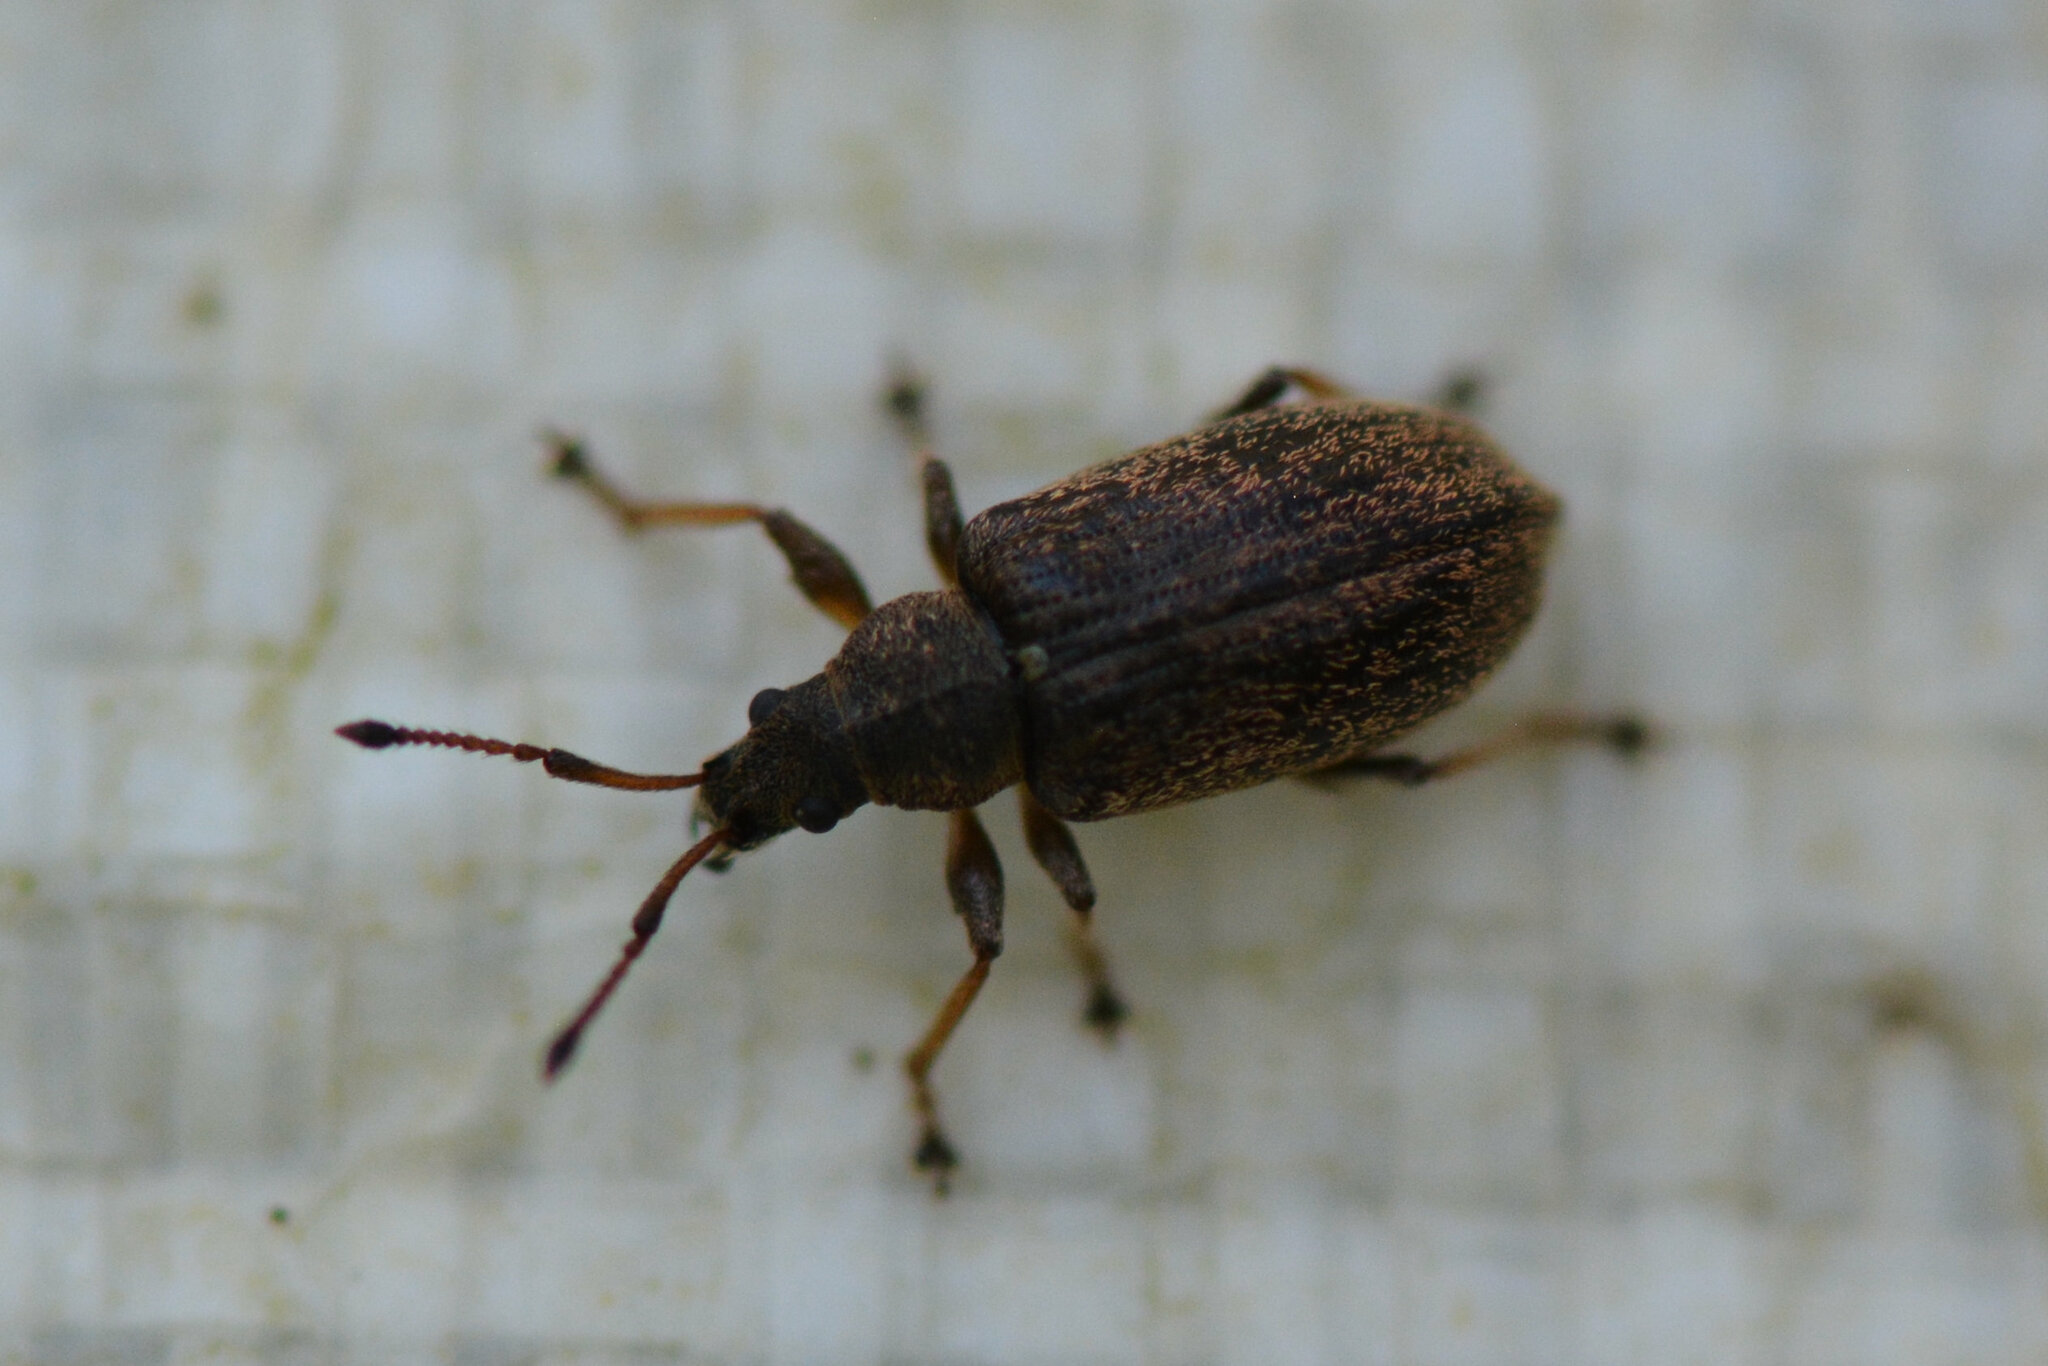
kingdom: Animalia
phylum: Arthropoda
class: Insecta
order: Coleoptera
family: Curculionidae
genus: Phyllobius
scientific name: Phyllobius pyri
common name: Common leaf weevil
